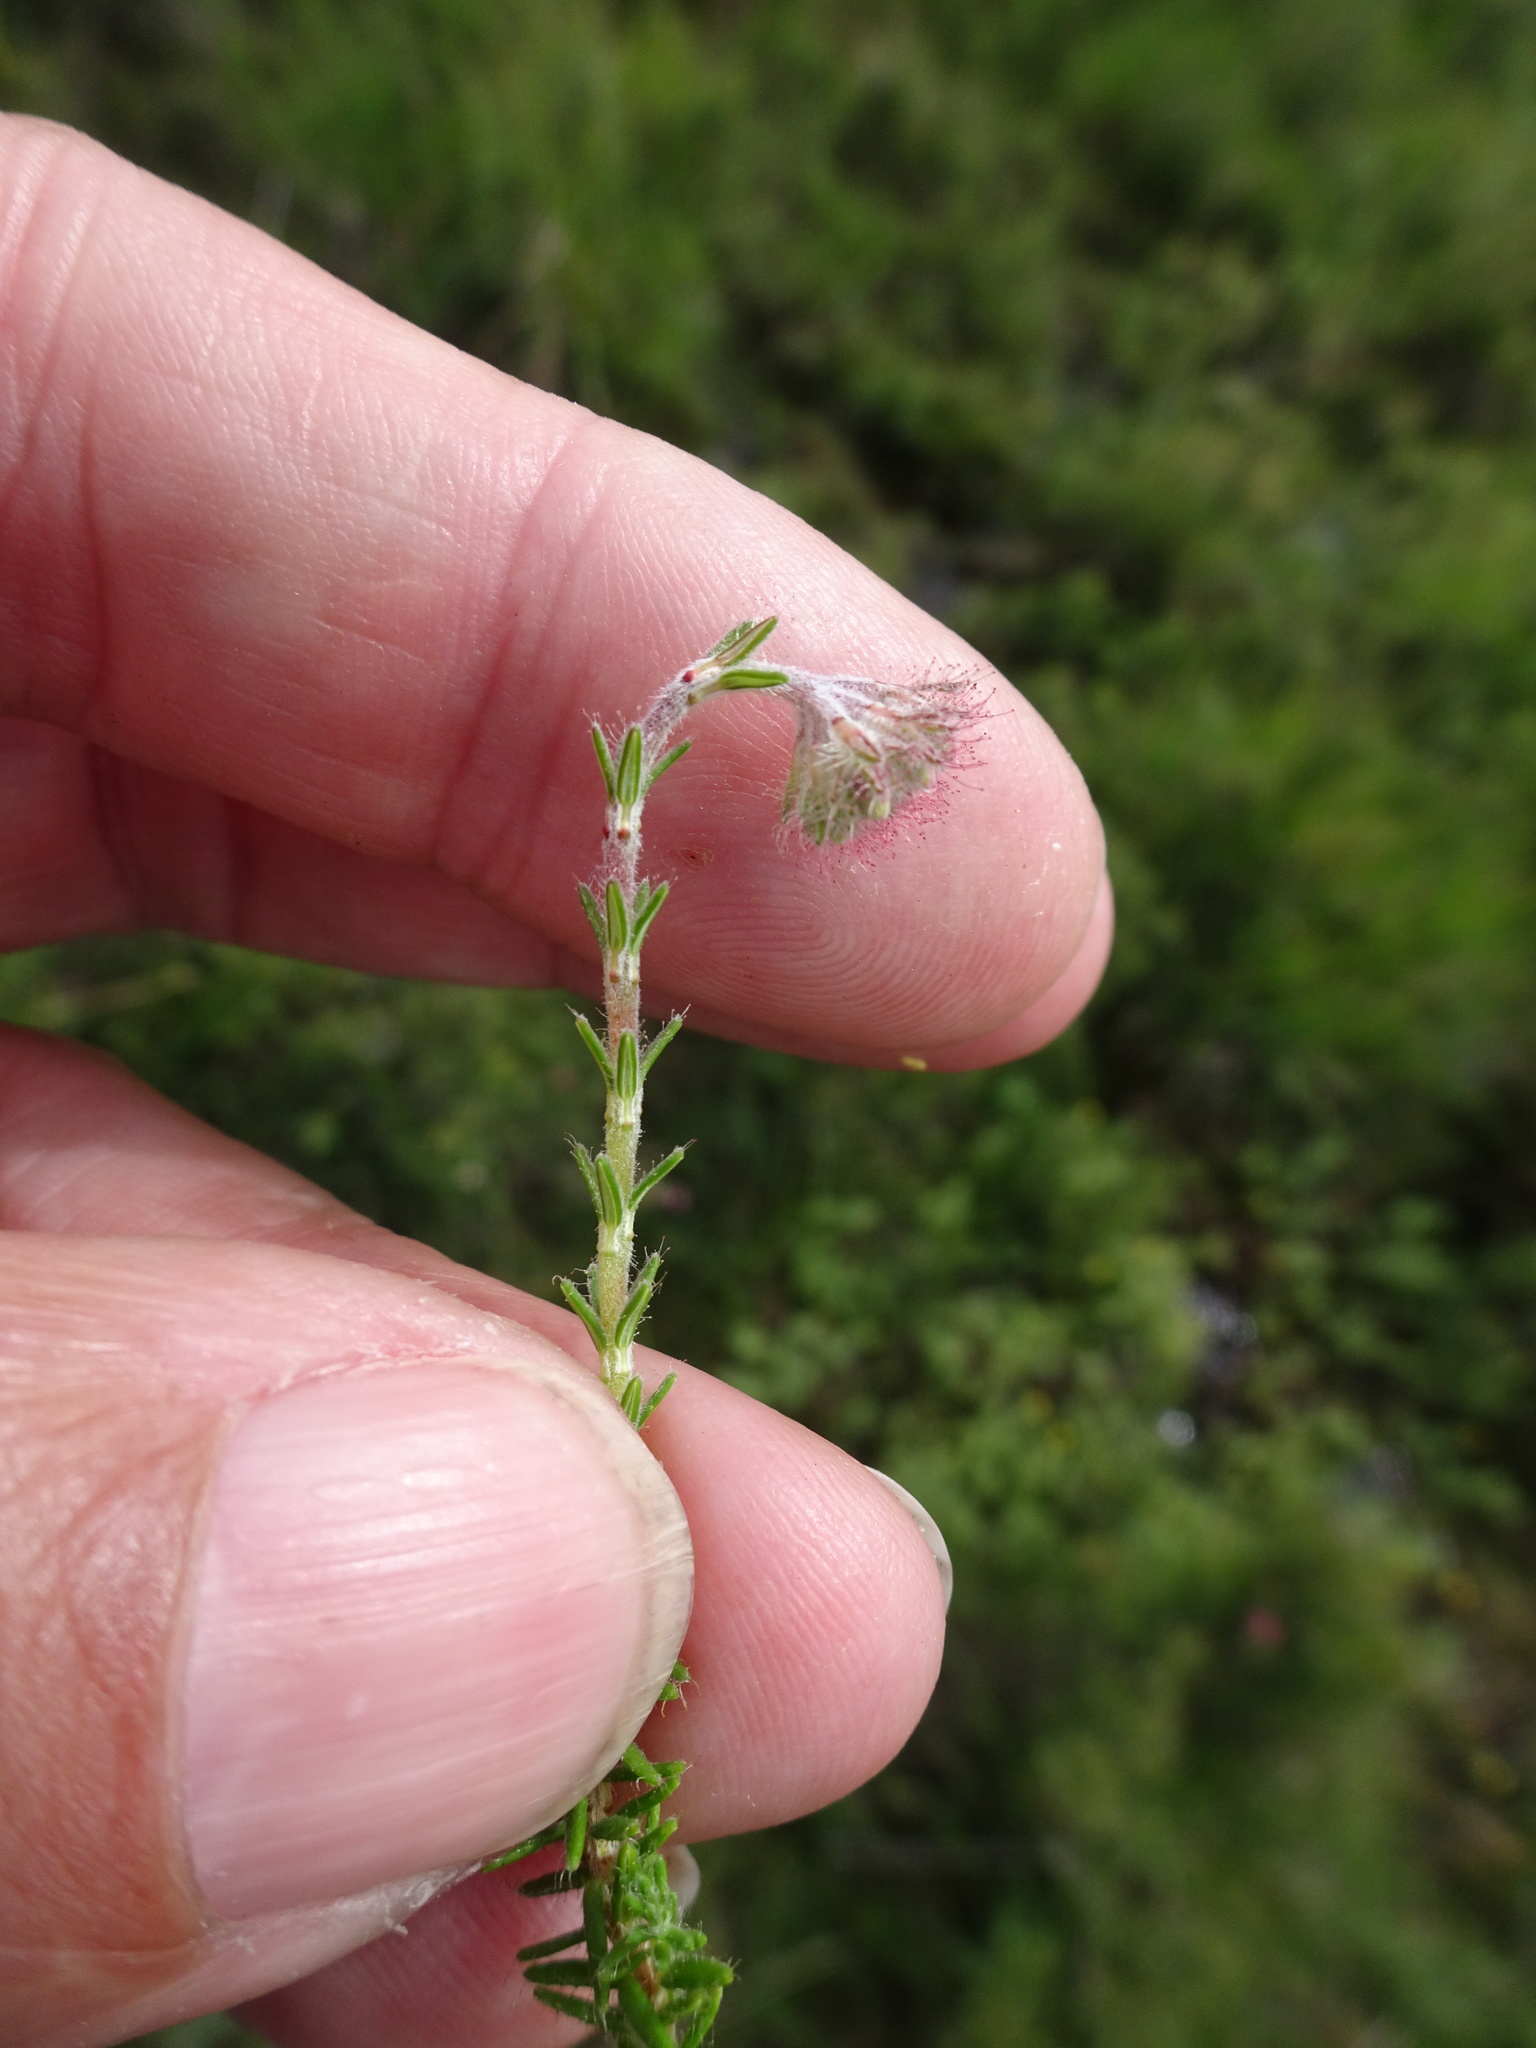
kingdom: Plantae
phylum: Tracheophyta
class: Magnoliopsida
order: Ericales
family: Ericaceae
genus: Erica
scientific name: Erica tetralix
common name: Cross-leaved heath
